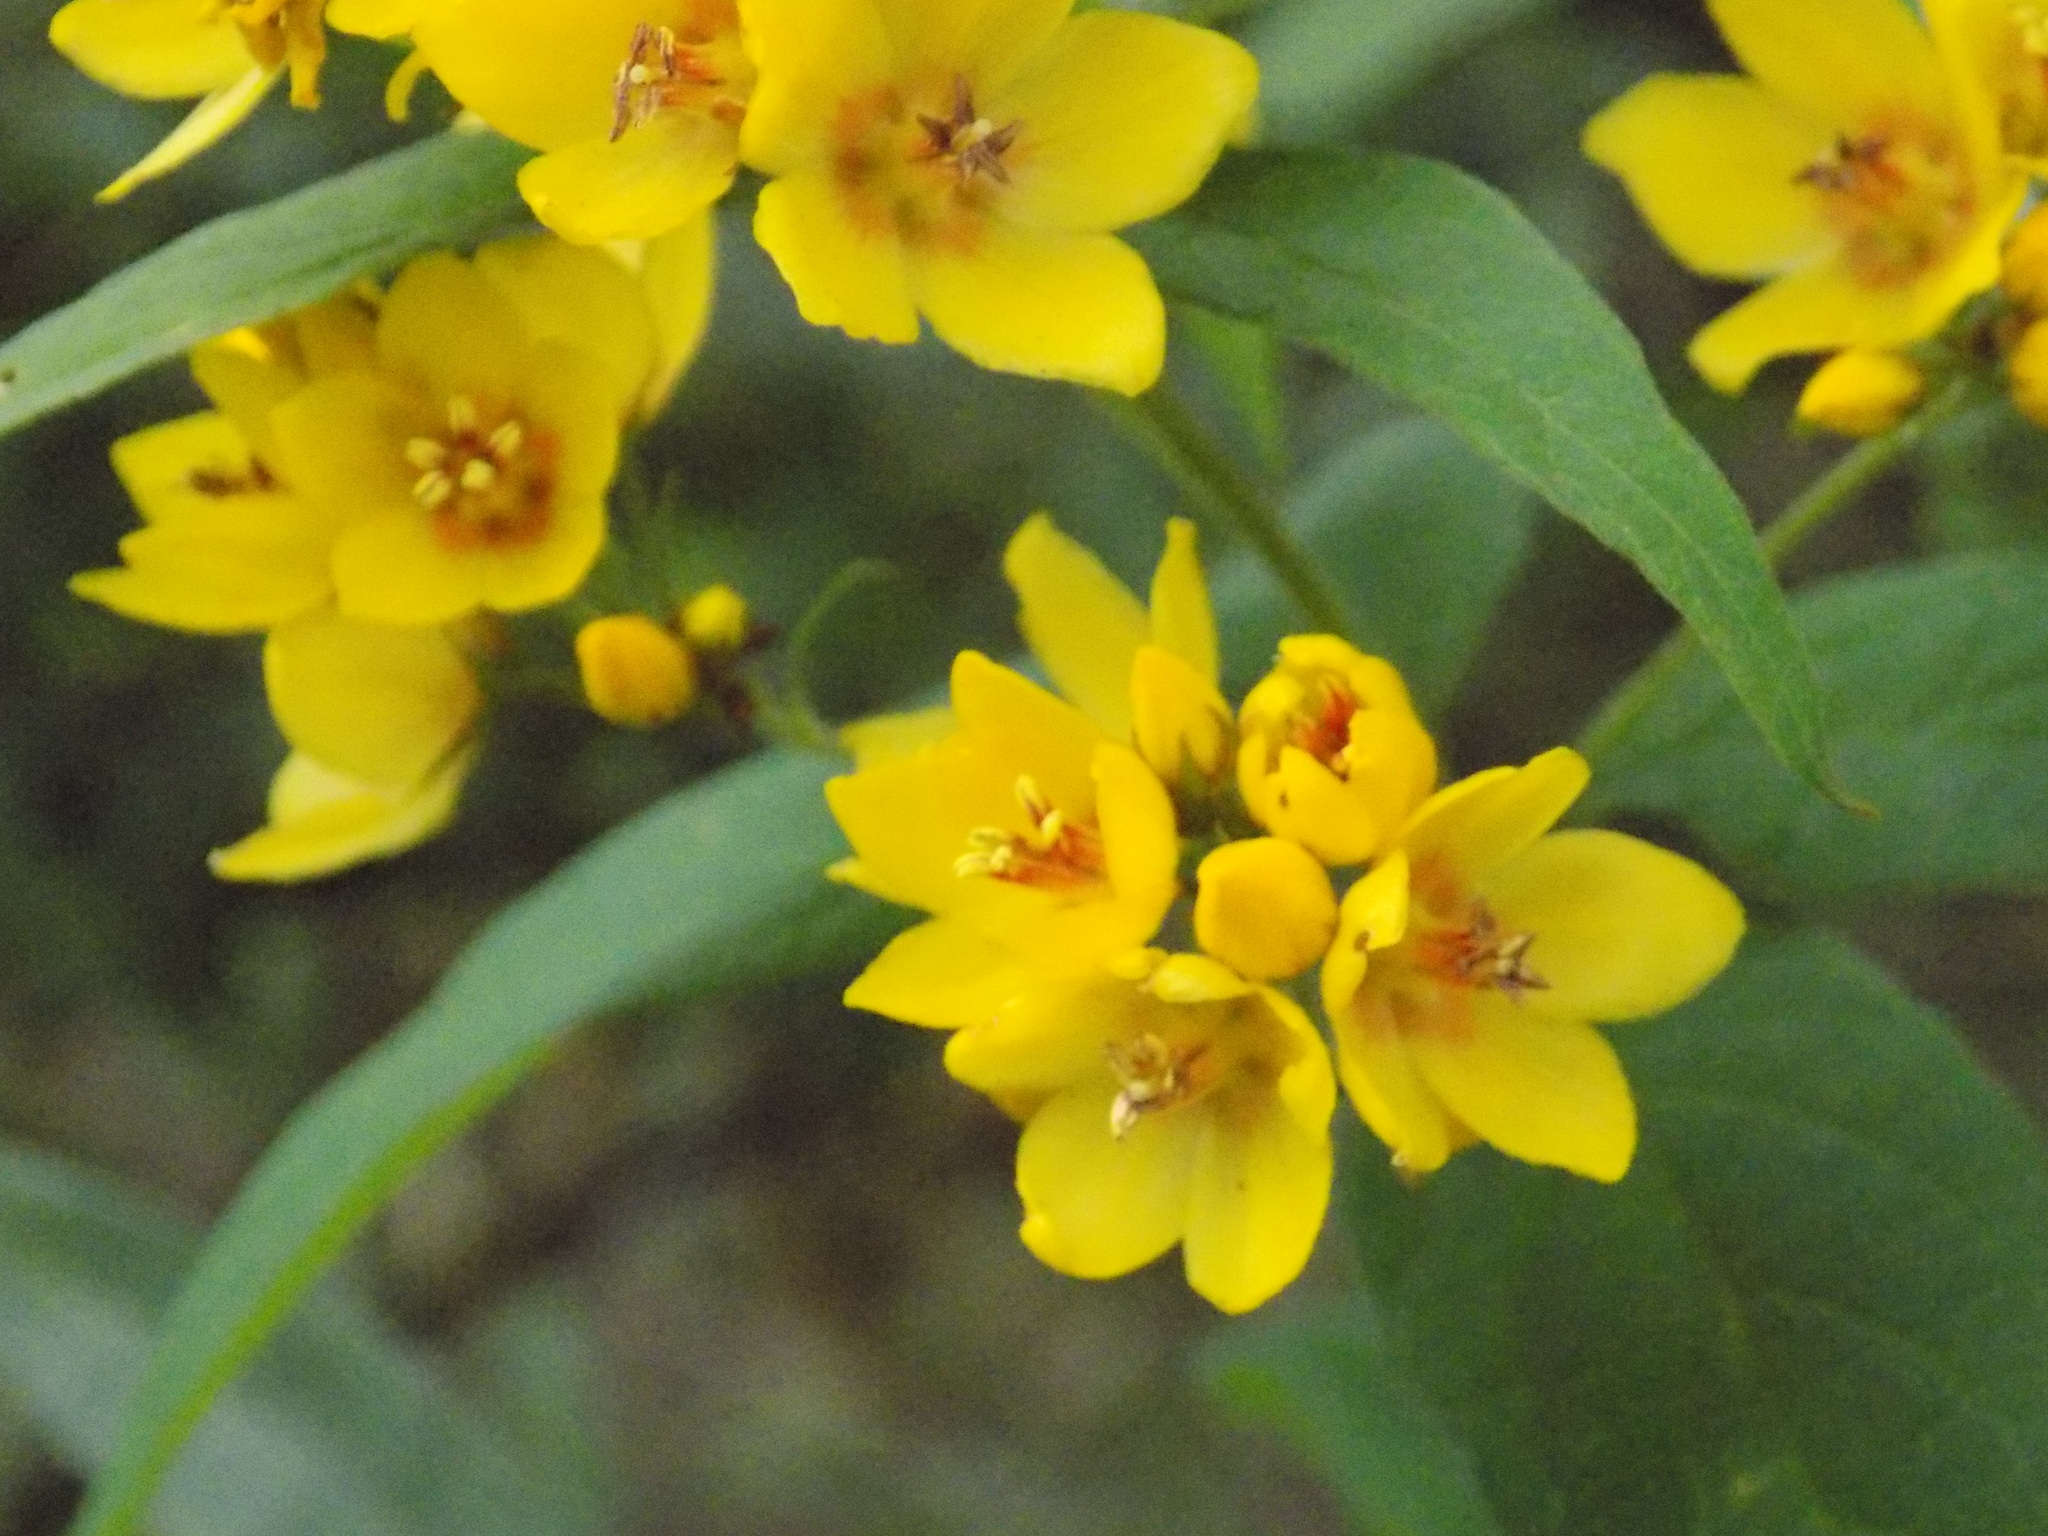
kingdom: Plantae
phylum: Tracheophyta
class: Magnoliopsida
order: Ericales
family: Primulaceae
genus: Lysimachia
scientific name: Lysimachia vulgaris
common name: Yellow loosestrife
